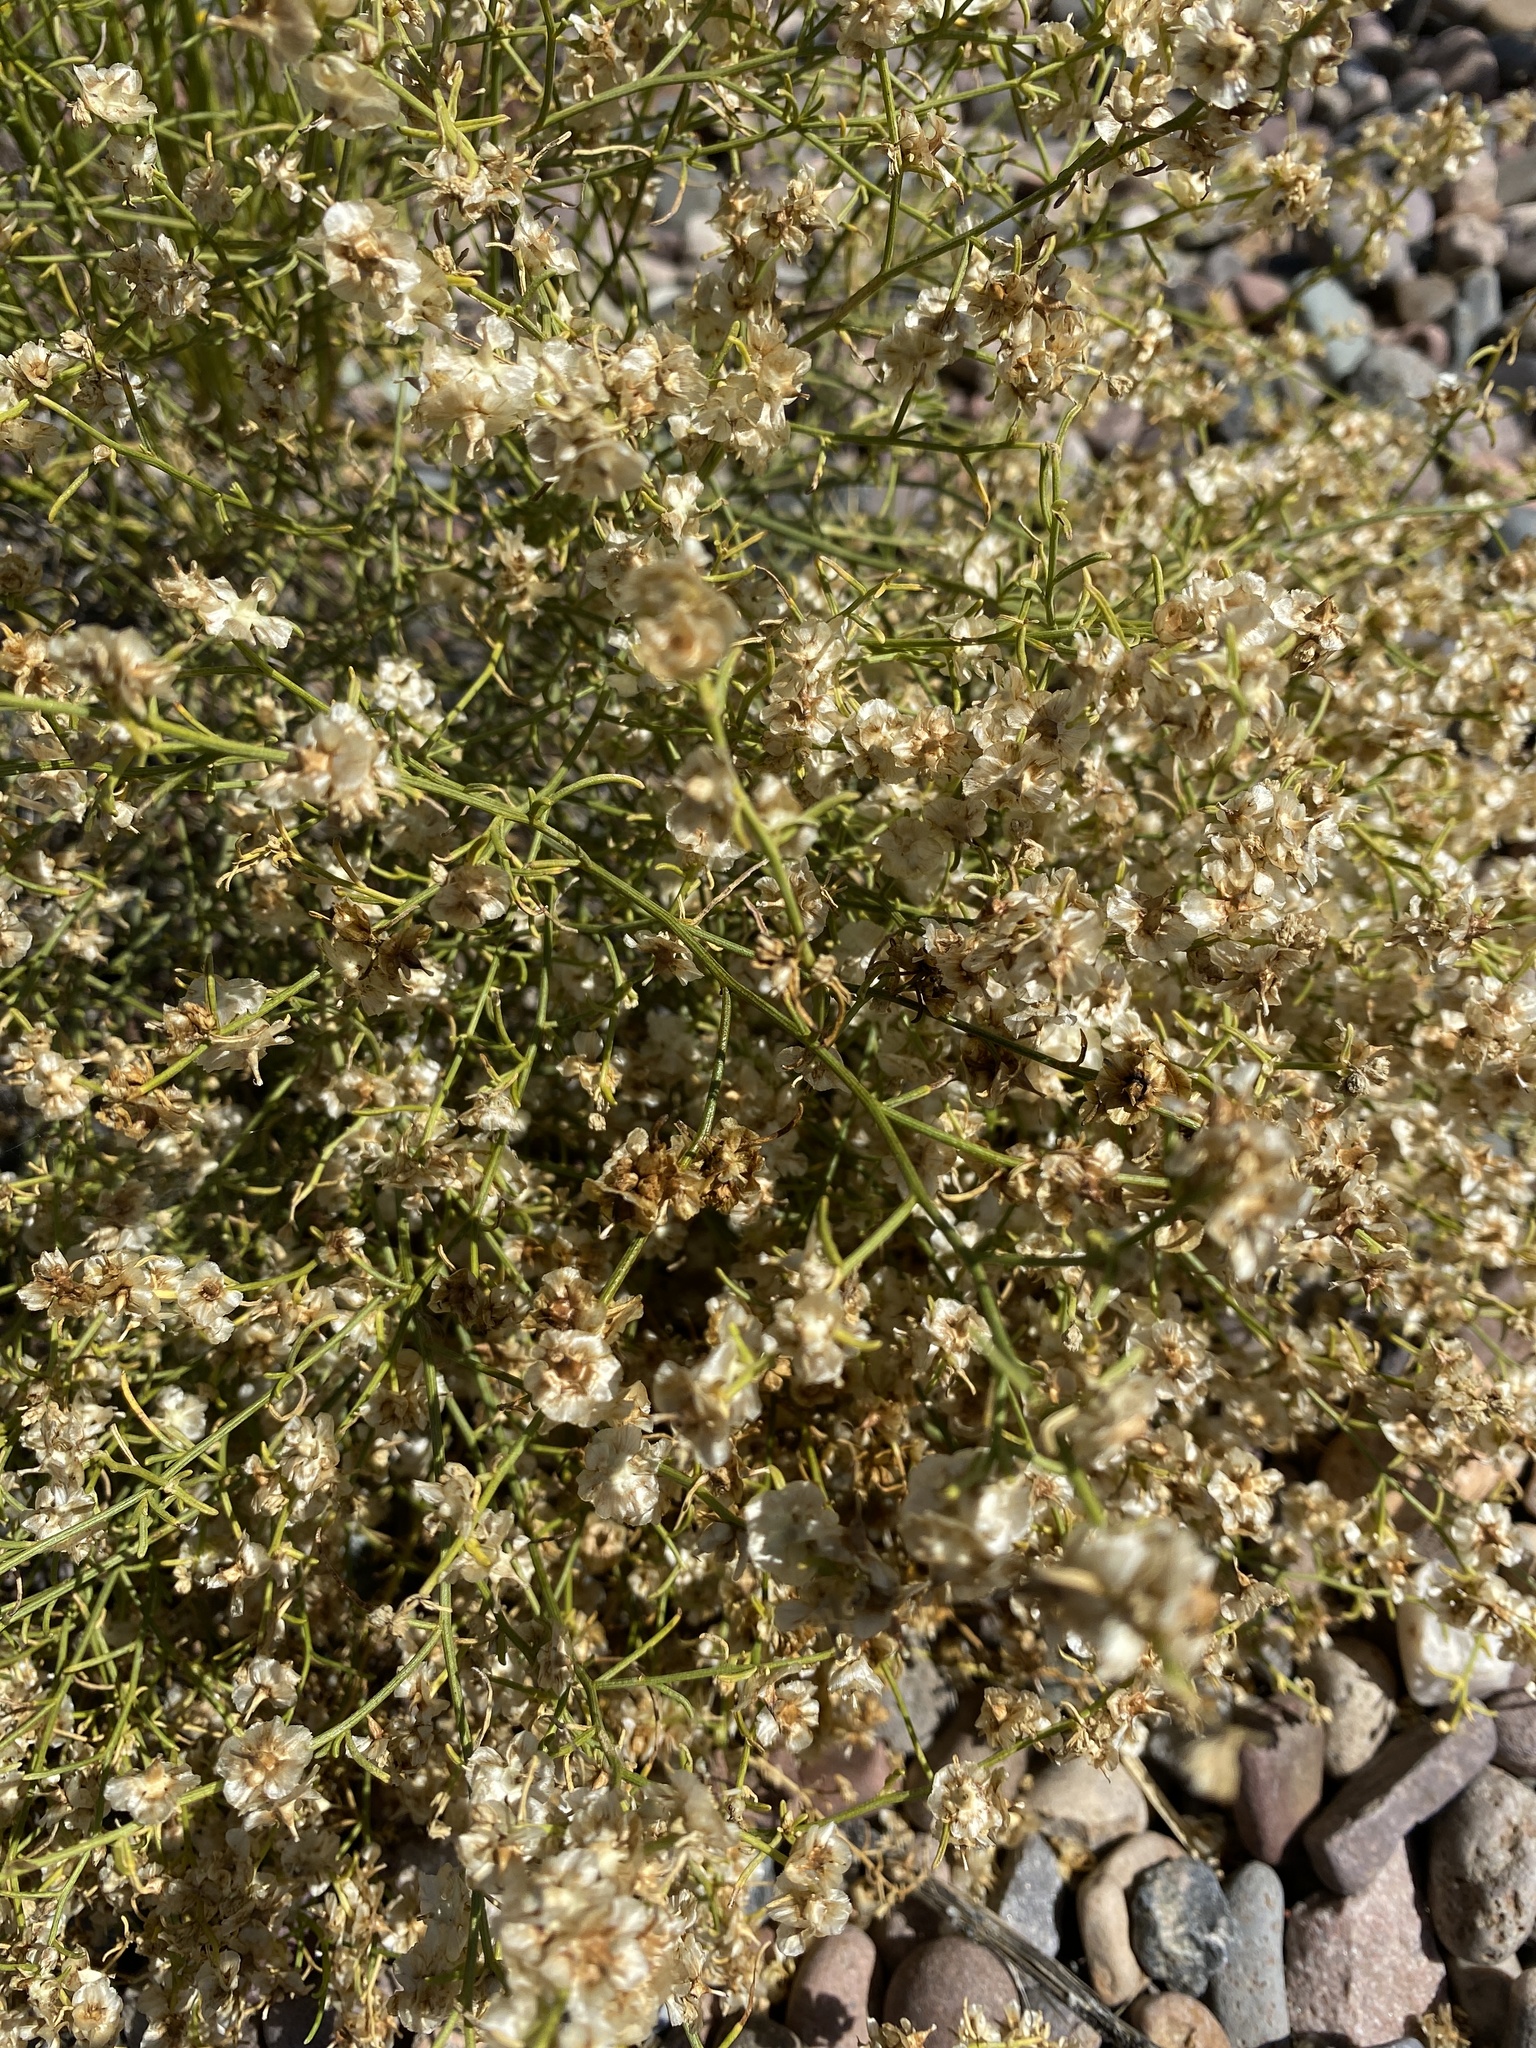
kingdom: Plantae
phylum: Tracheophyta
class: Magnoliopsida
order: Asterales
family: Asteraceae
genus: Ambrosia
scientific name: Ambrosia salsola
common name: Burrobrush
